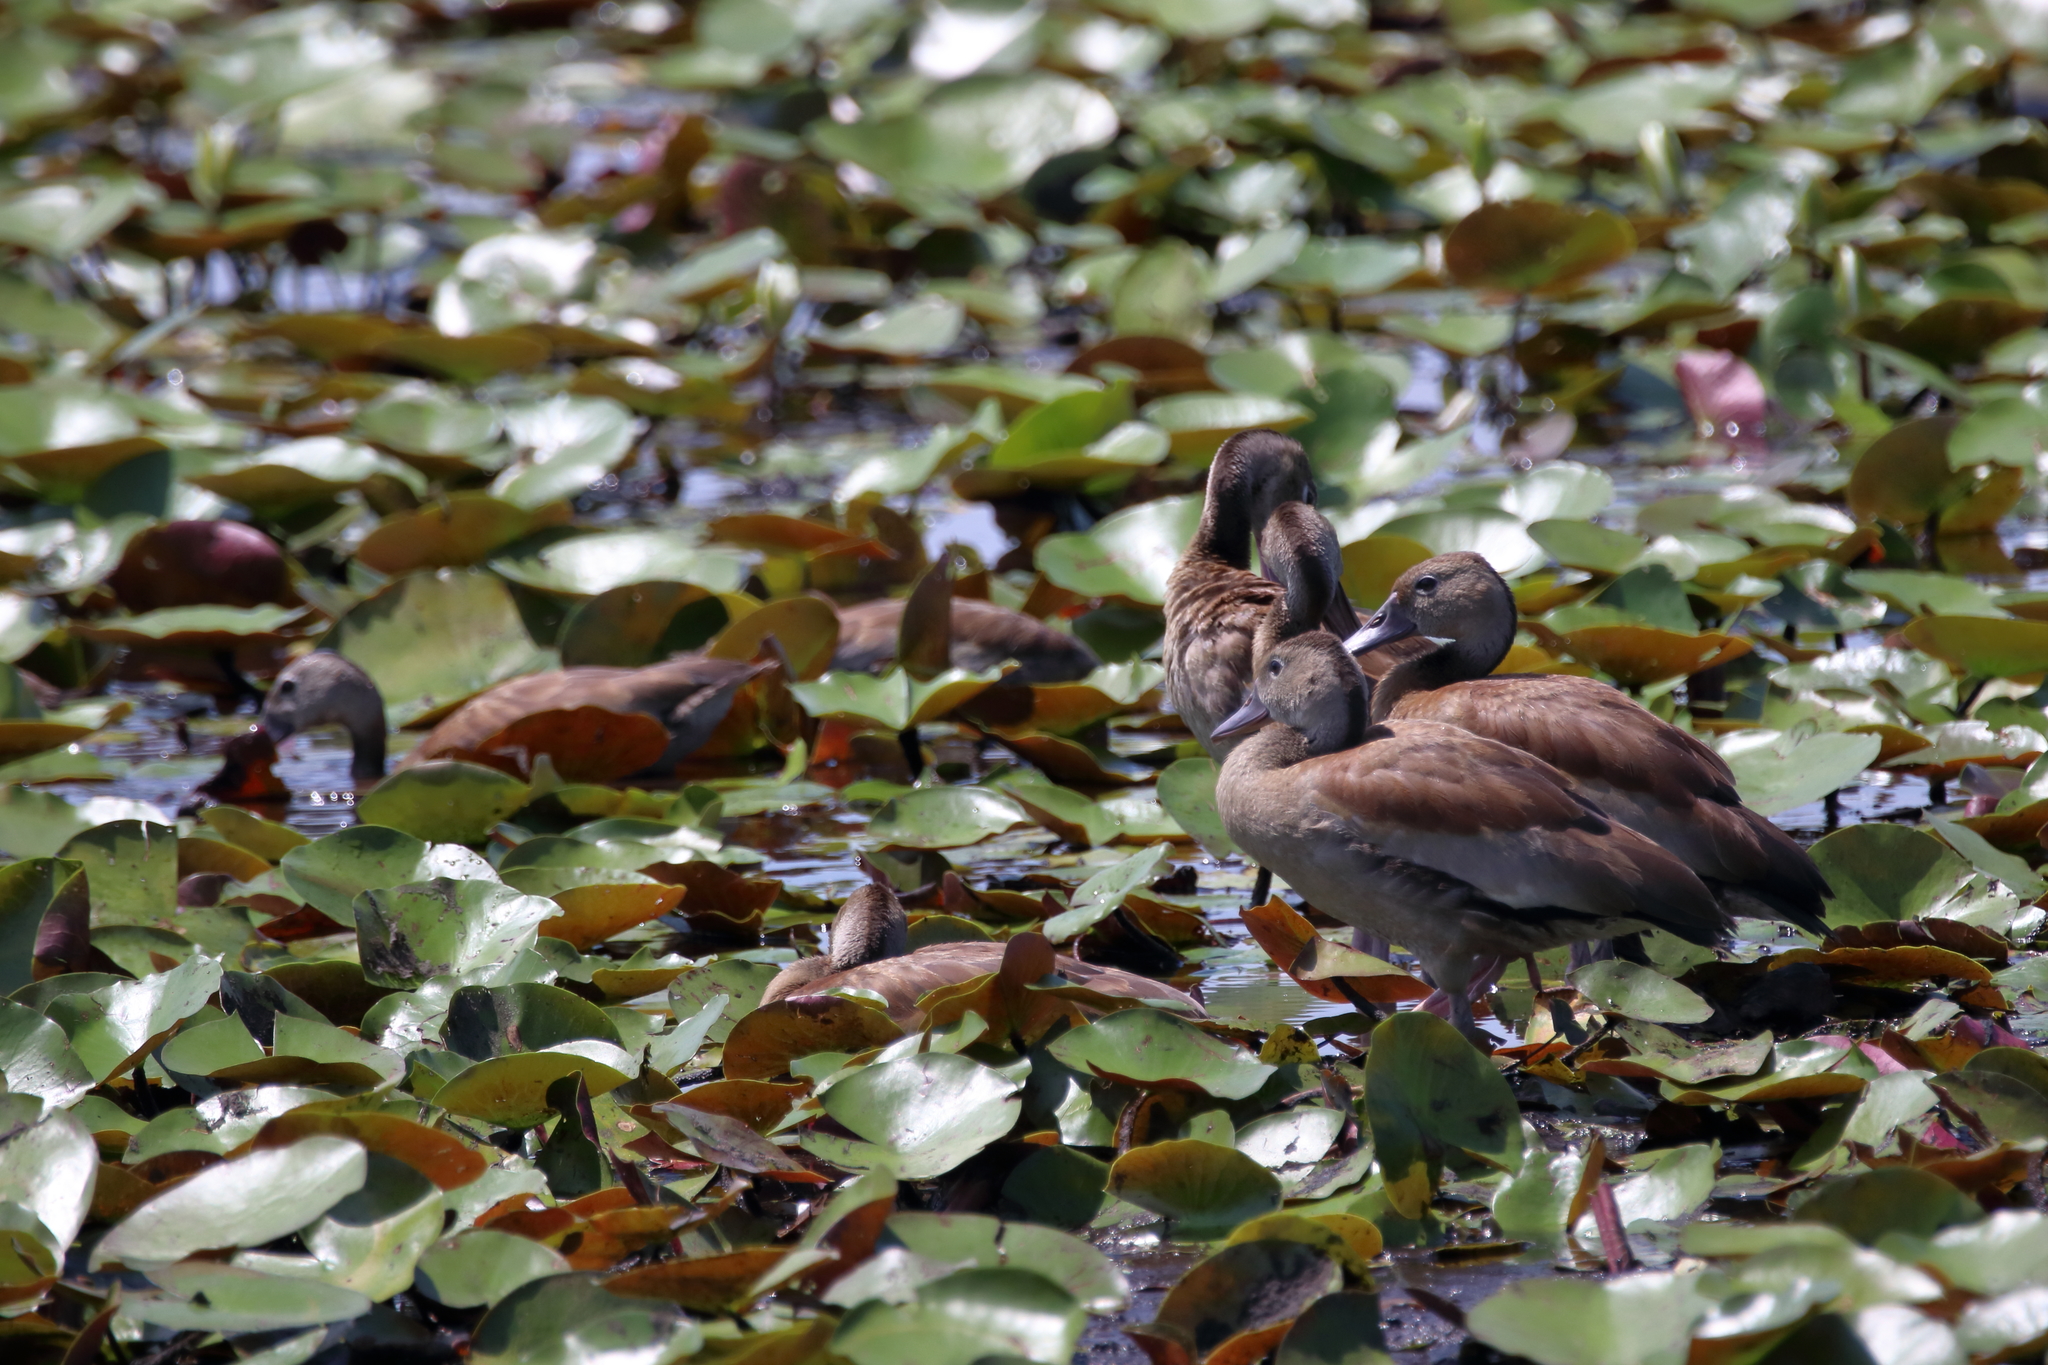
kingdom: Animalia
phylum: Chordata
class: Aves
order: Anseriformes
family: Anatidae
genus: Dendrocygna
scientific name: Dendrocygna autumnalis
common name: Black-bellied whistling duck
